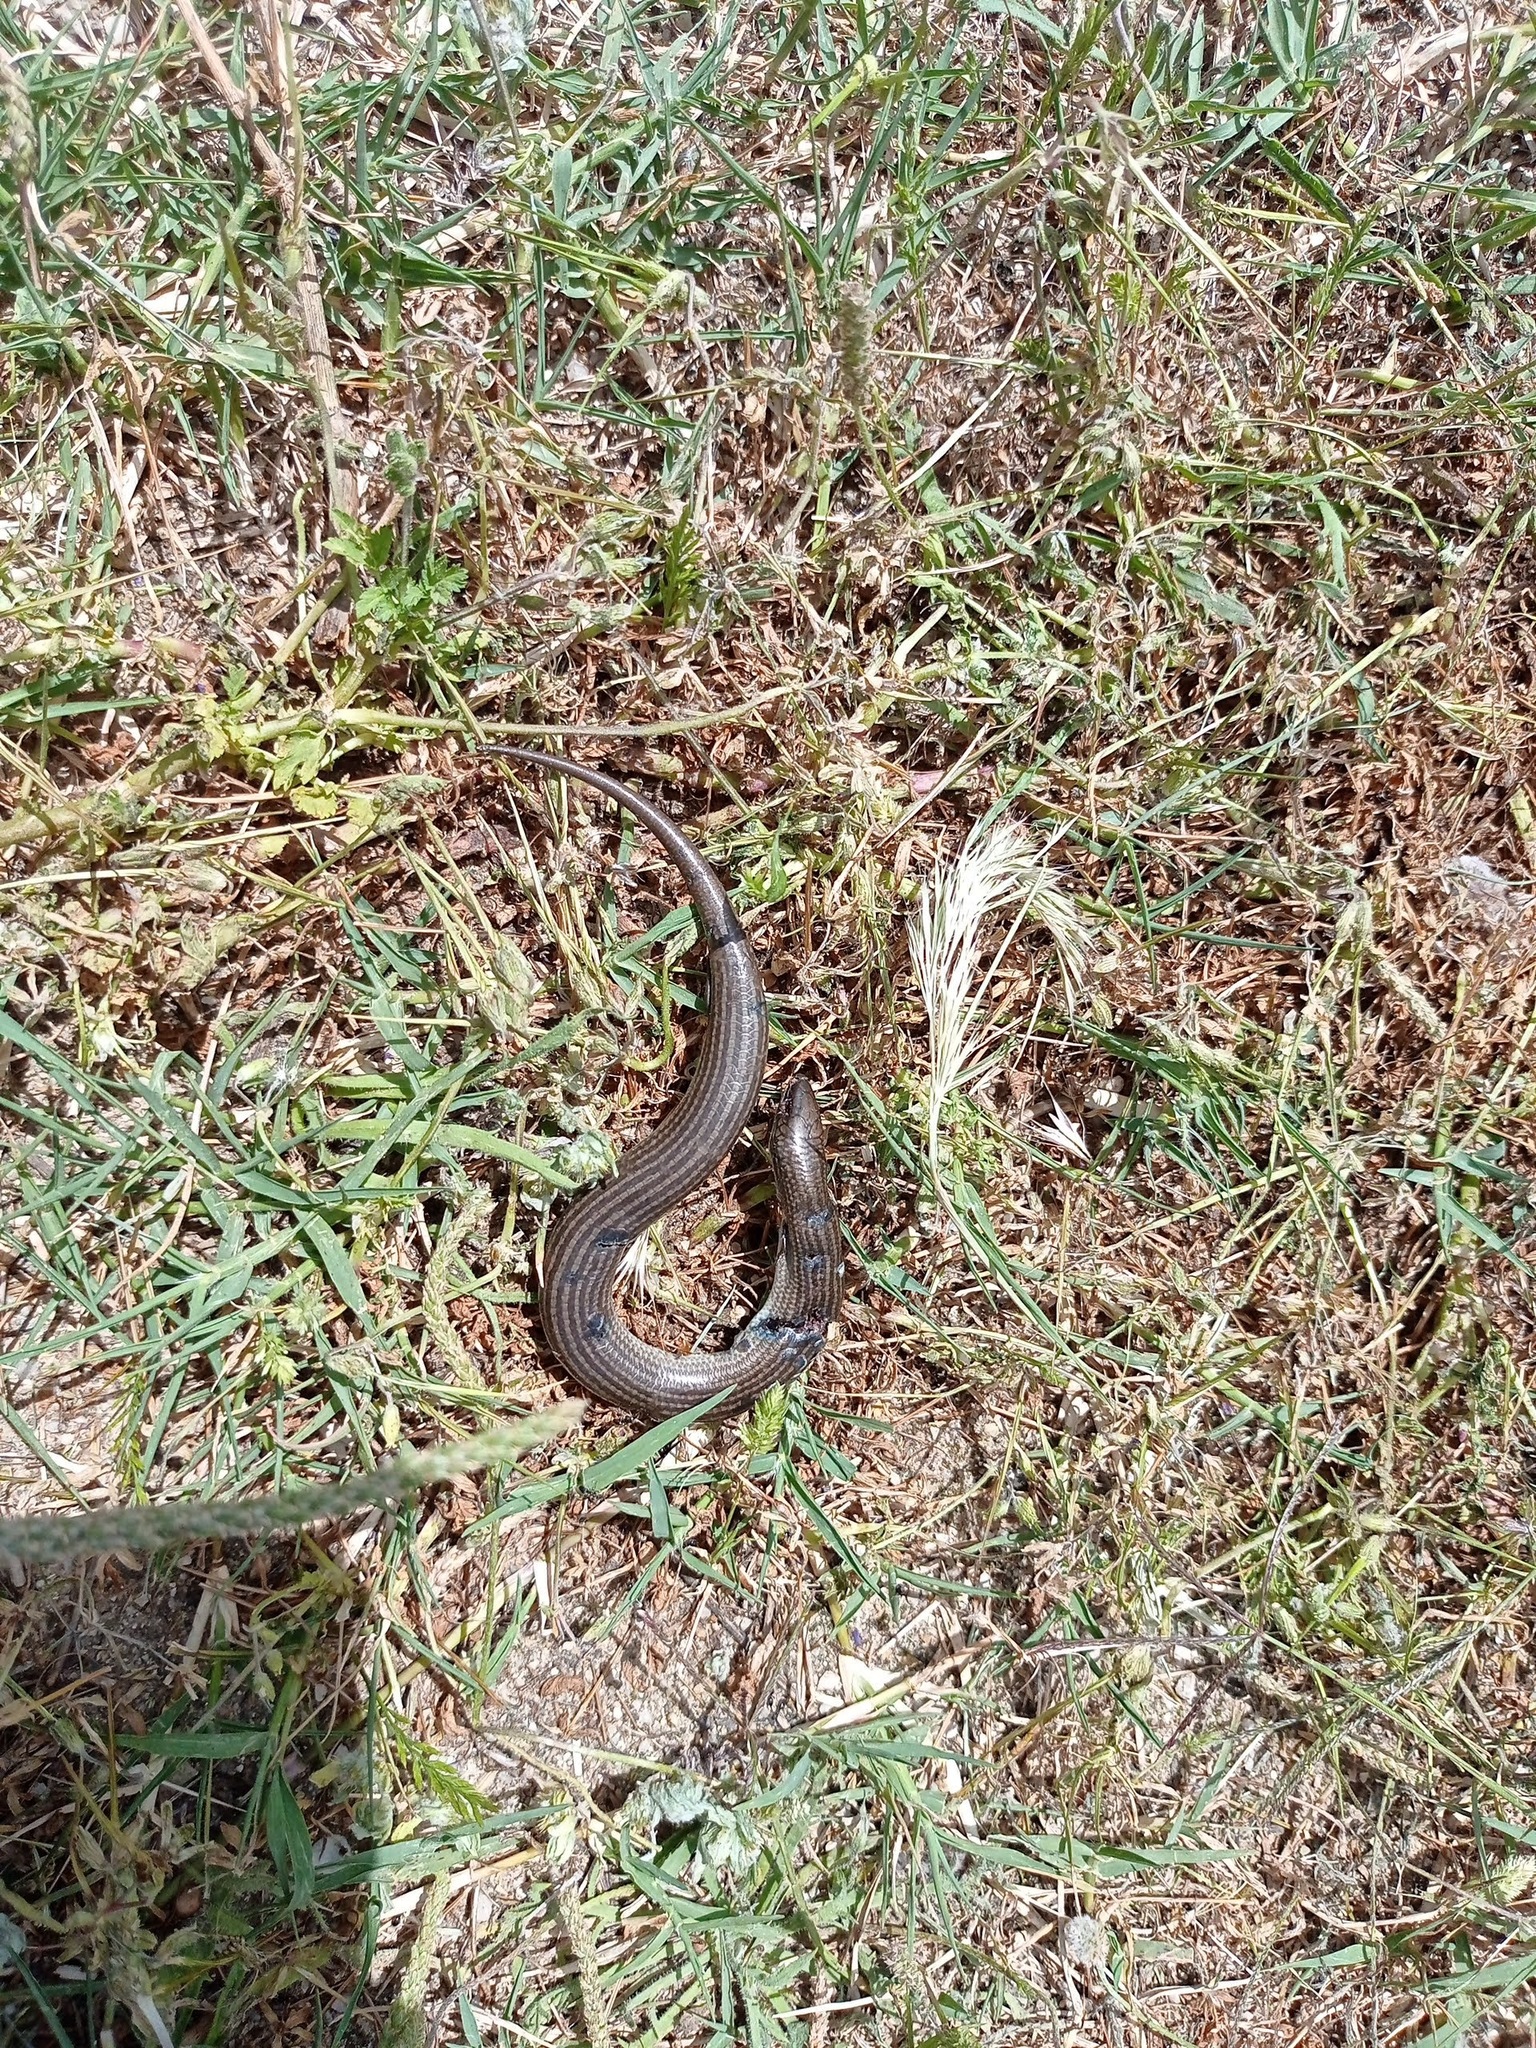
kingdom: Animalia
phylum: Chordata
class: Squamata
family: Scincidae
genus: Chalcides
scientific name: Chalcides striatus
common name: Western (or iberian) three-toed skink
